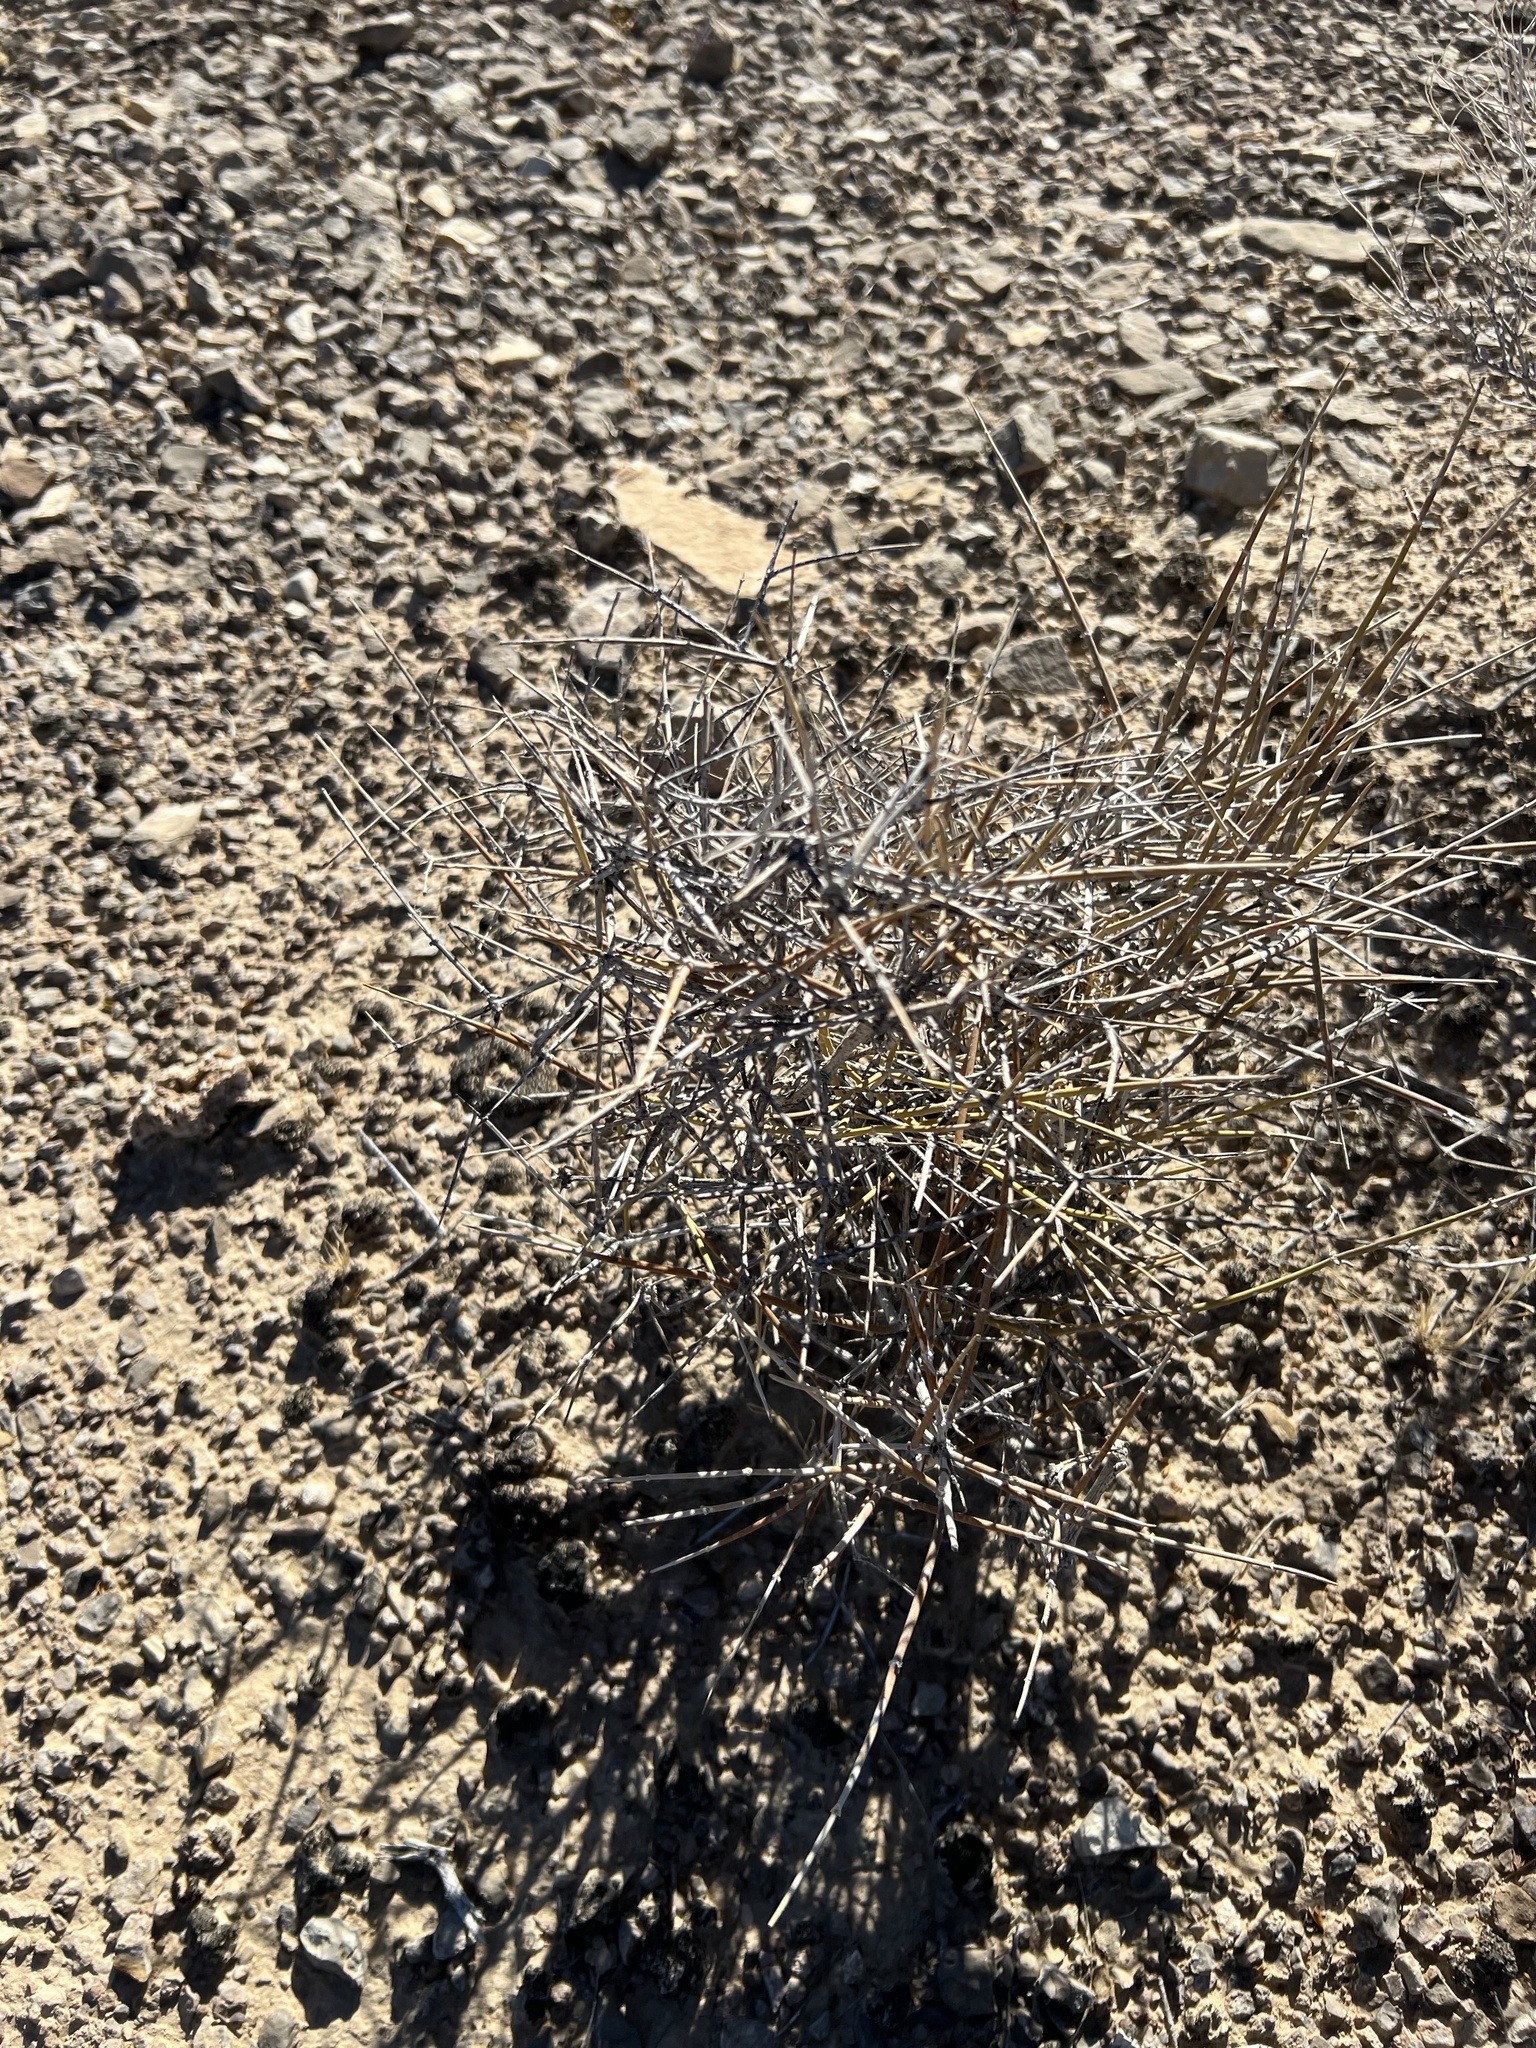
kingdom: Plantae
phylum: Tracheophyta
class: Gnetopsida
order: Ephedrales
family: Ephedraceae
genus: Ephedra
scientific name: Ephedra nevadensis
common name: Gray ephedra
